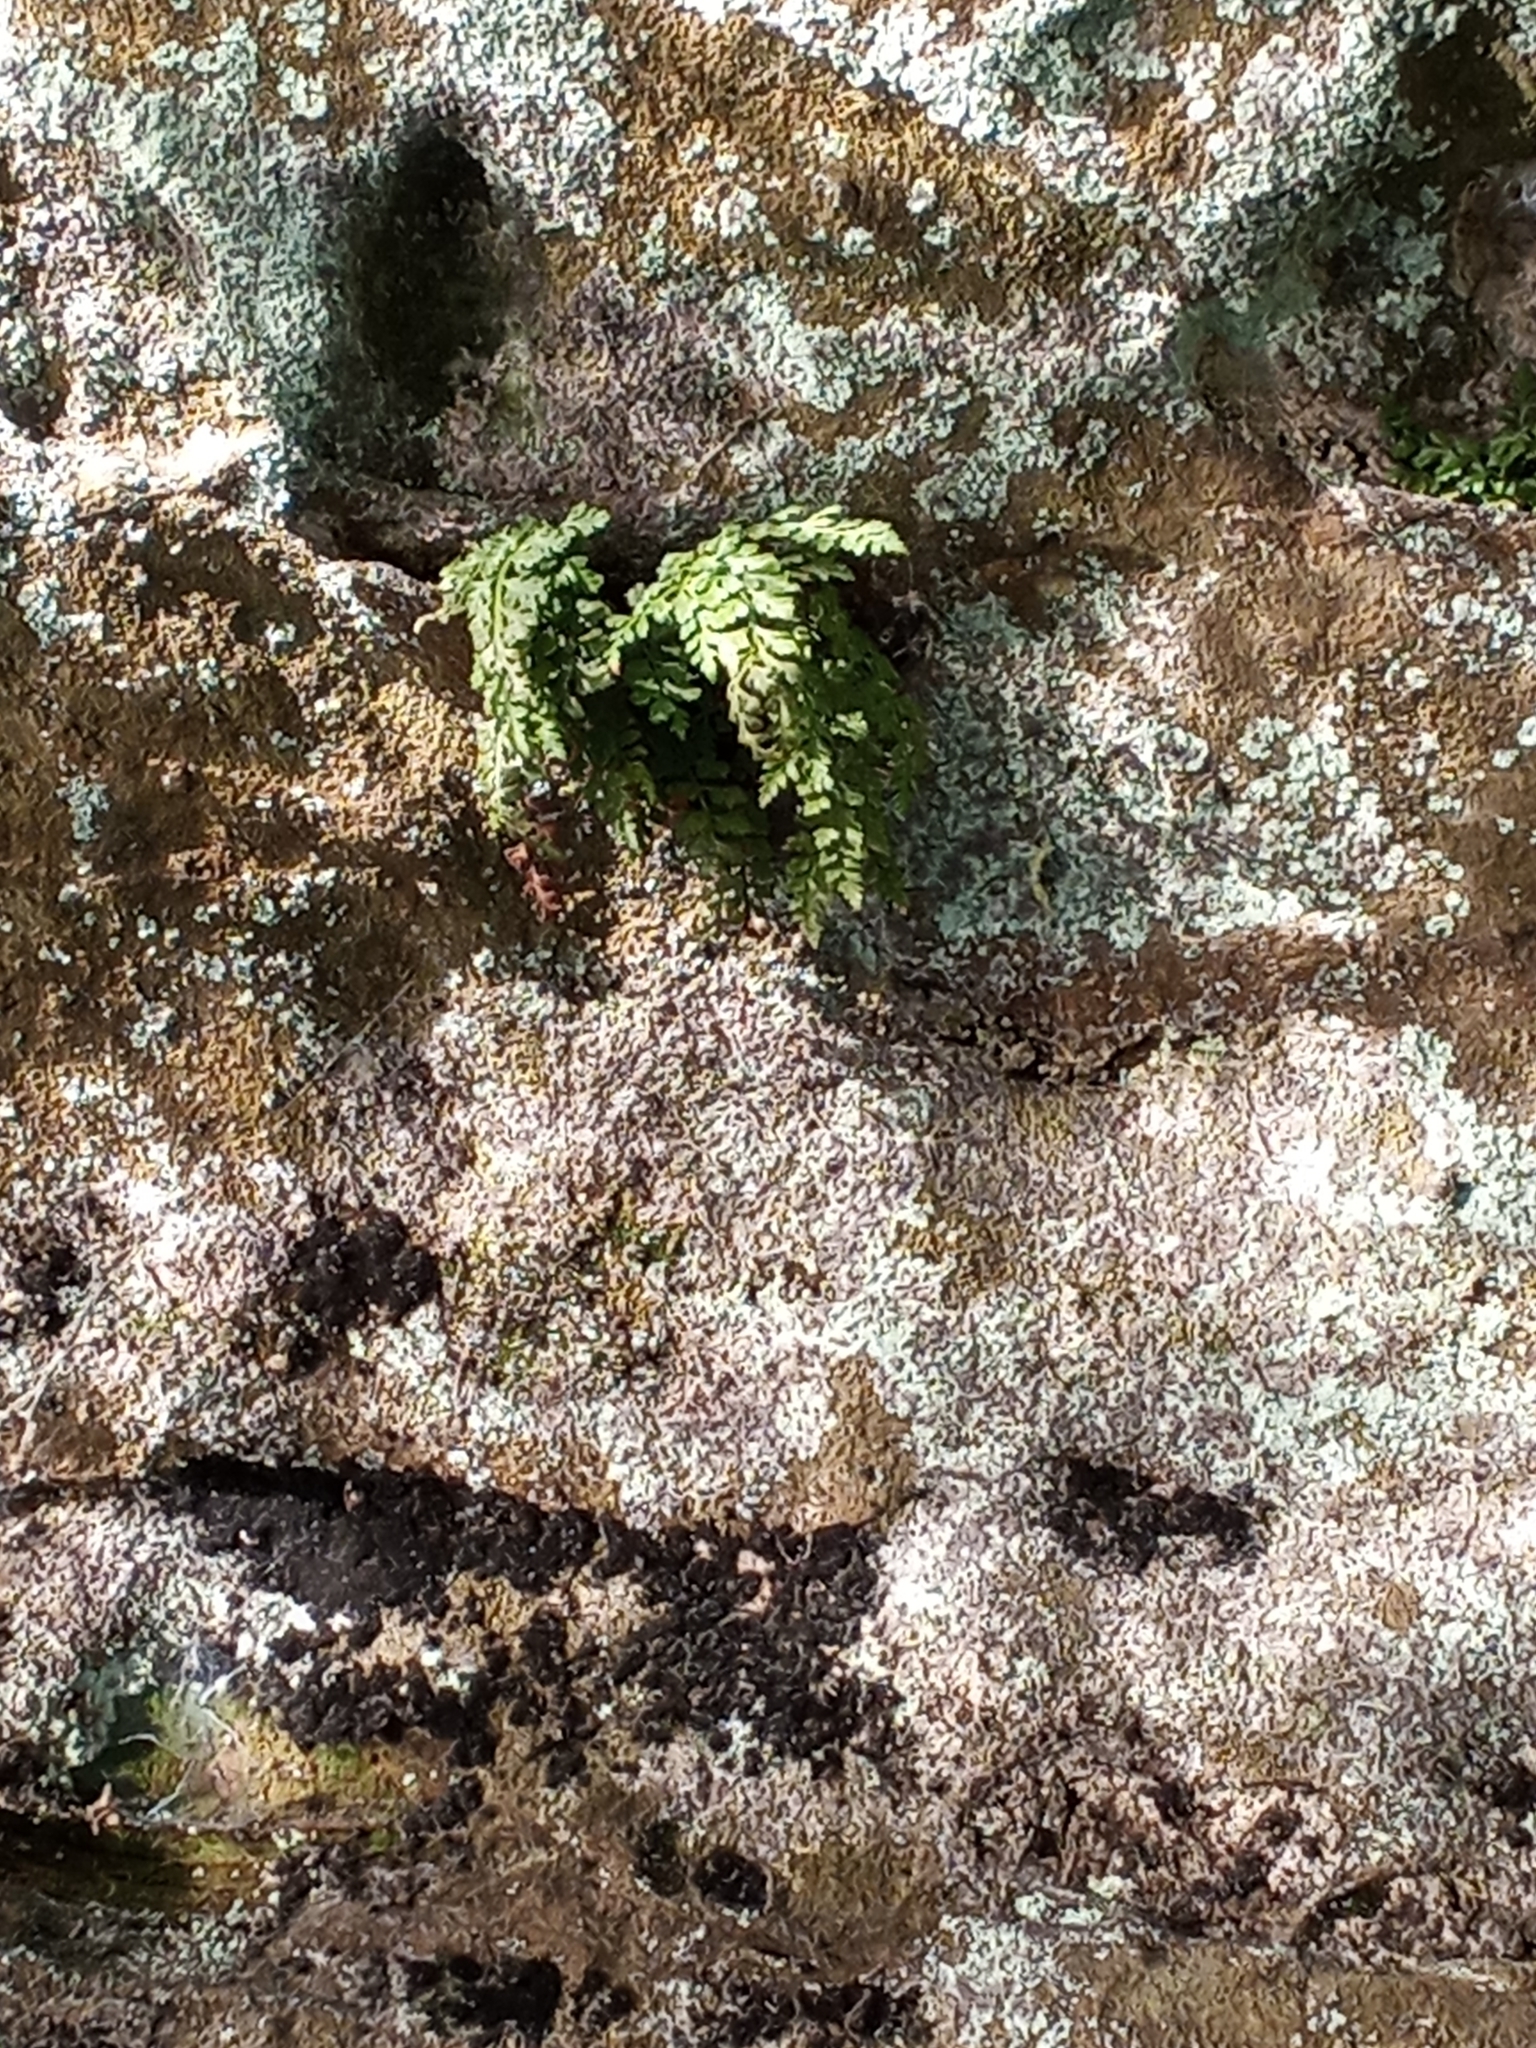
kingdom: Plantae
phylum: Tracheophyta
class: Polypodiopsida
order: Polypodiales
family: Aspleniaceae
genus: Asplenium
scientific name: Asplenium montanum
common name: Mountain spleenwort
